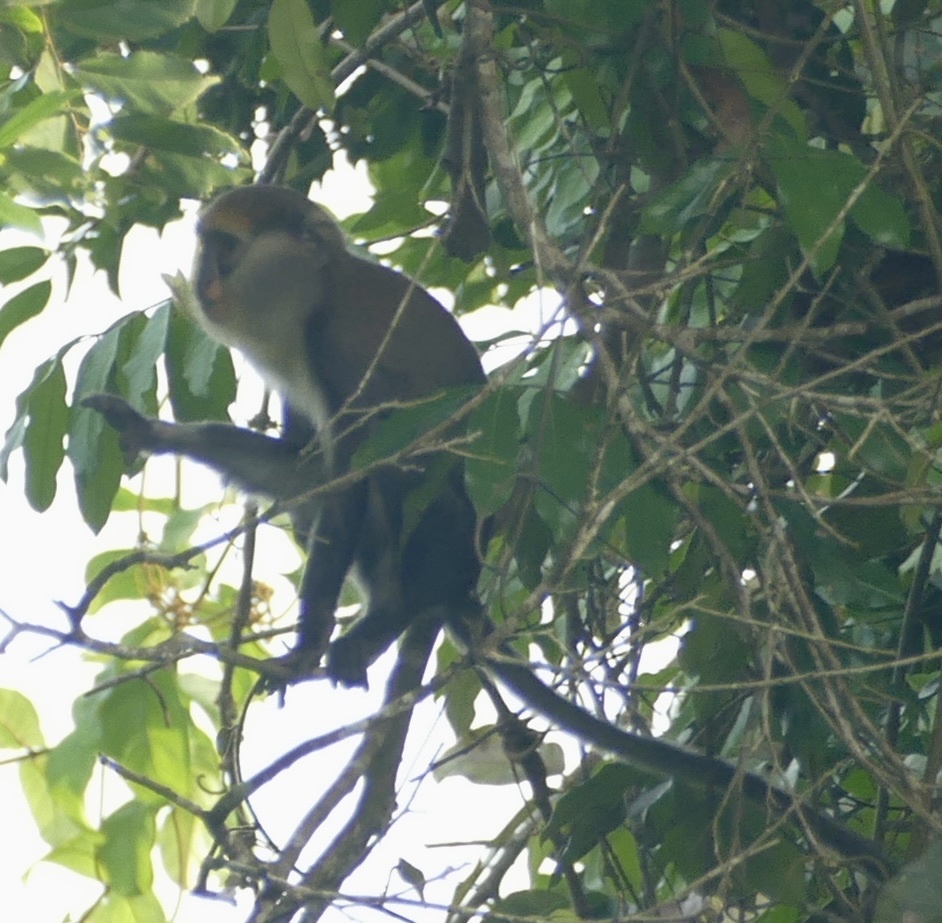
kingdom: Animalia
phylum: Chordata
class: Mammalia
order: Primates
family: Cercopithecidae
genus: Cercopithecus
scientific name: Cercopithecus lowei
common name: Lowe's monkey
